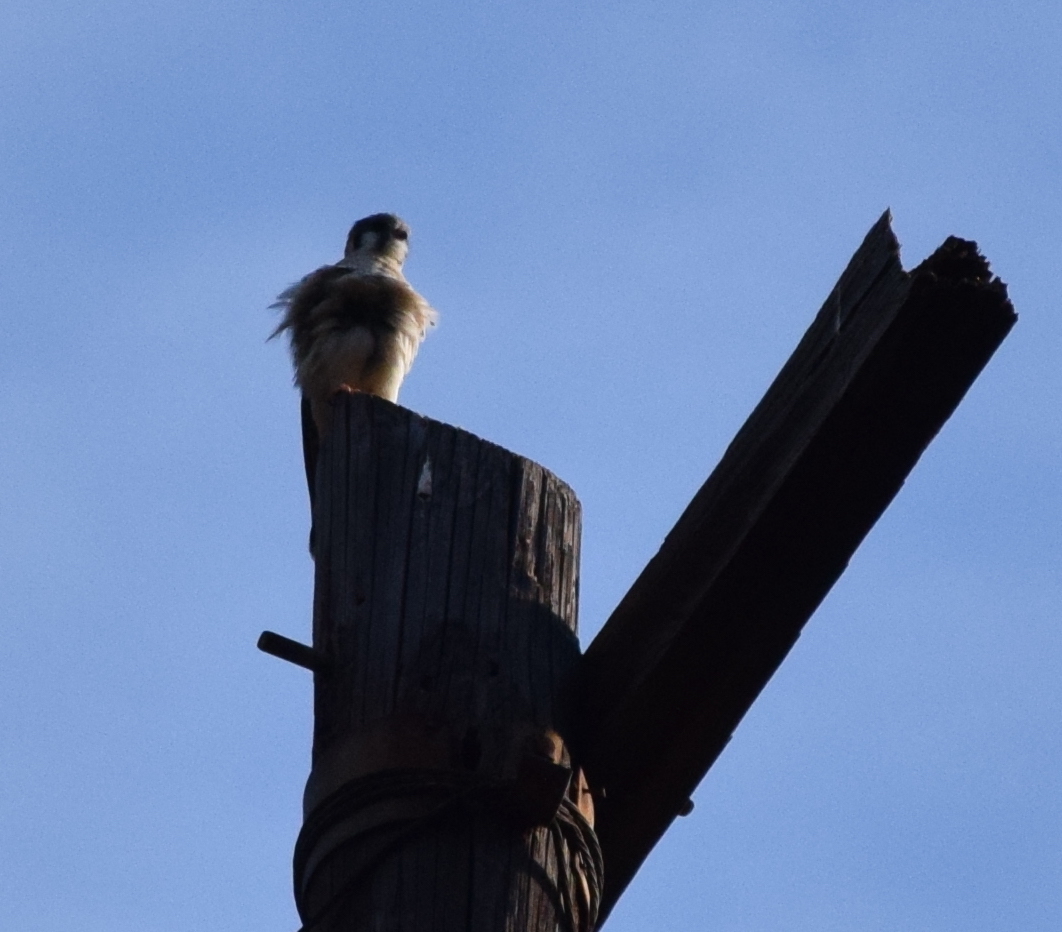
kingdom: Animalia
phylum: Chordata
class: Aves
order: Falconiformes
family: Falconidae
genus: Falco
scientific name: Falco sparverius
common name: American kestrel
